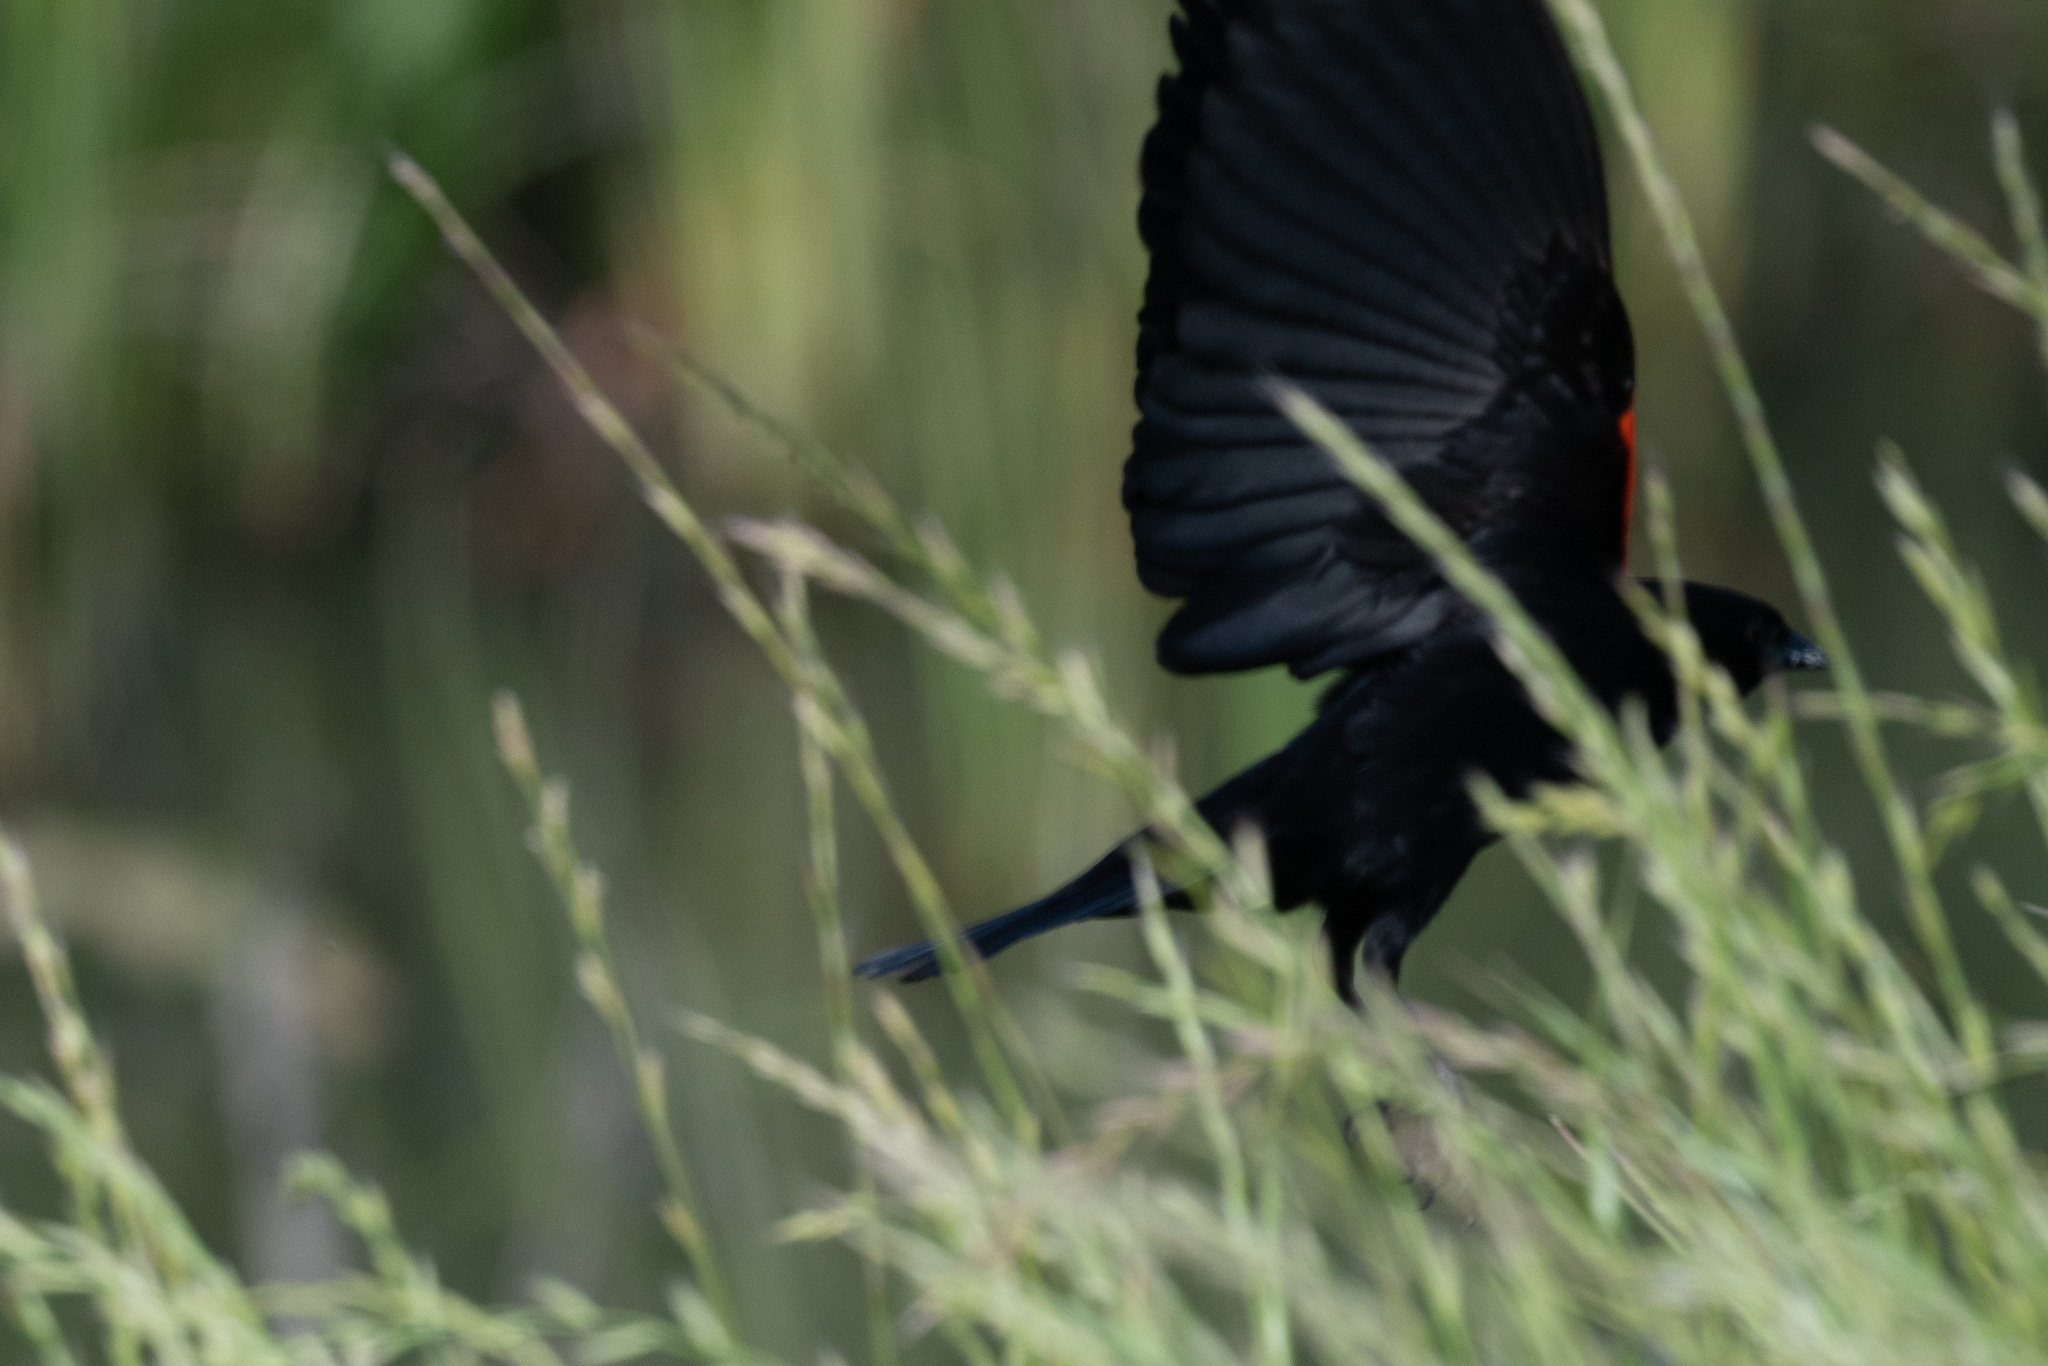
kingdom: Animalia
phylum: Chordata
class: Aves
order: Passeriformes
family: Icteridae
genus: Agelaius
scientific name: Agelaius phoeniceus
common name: Red-winged blackbird
